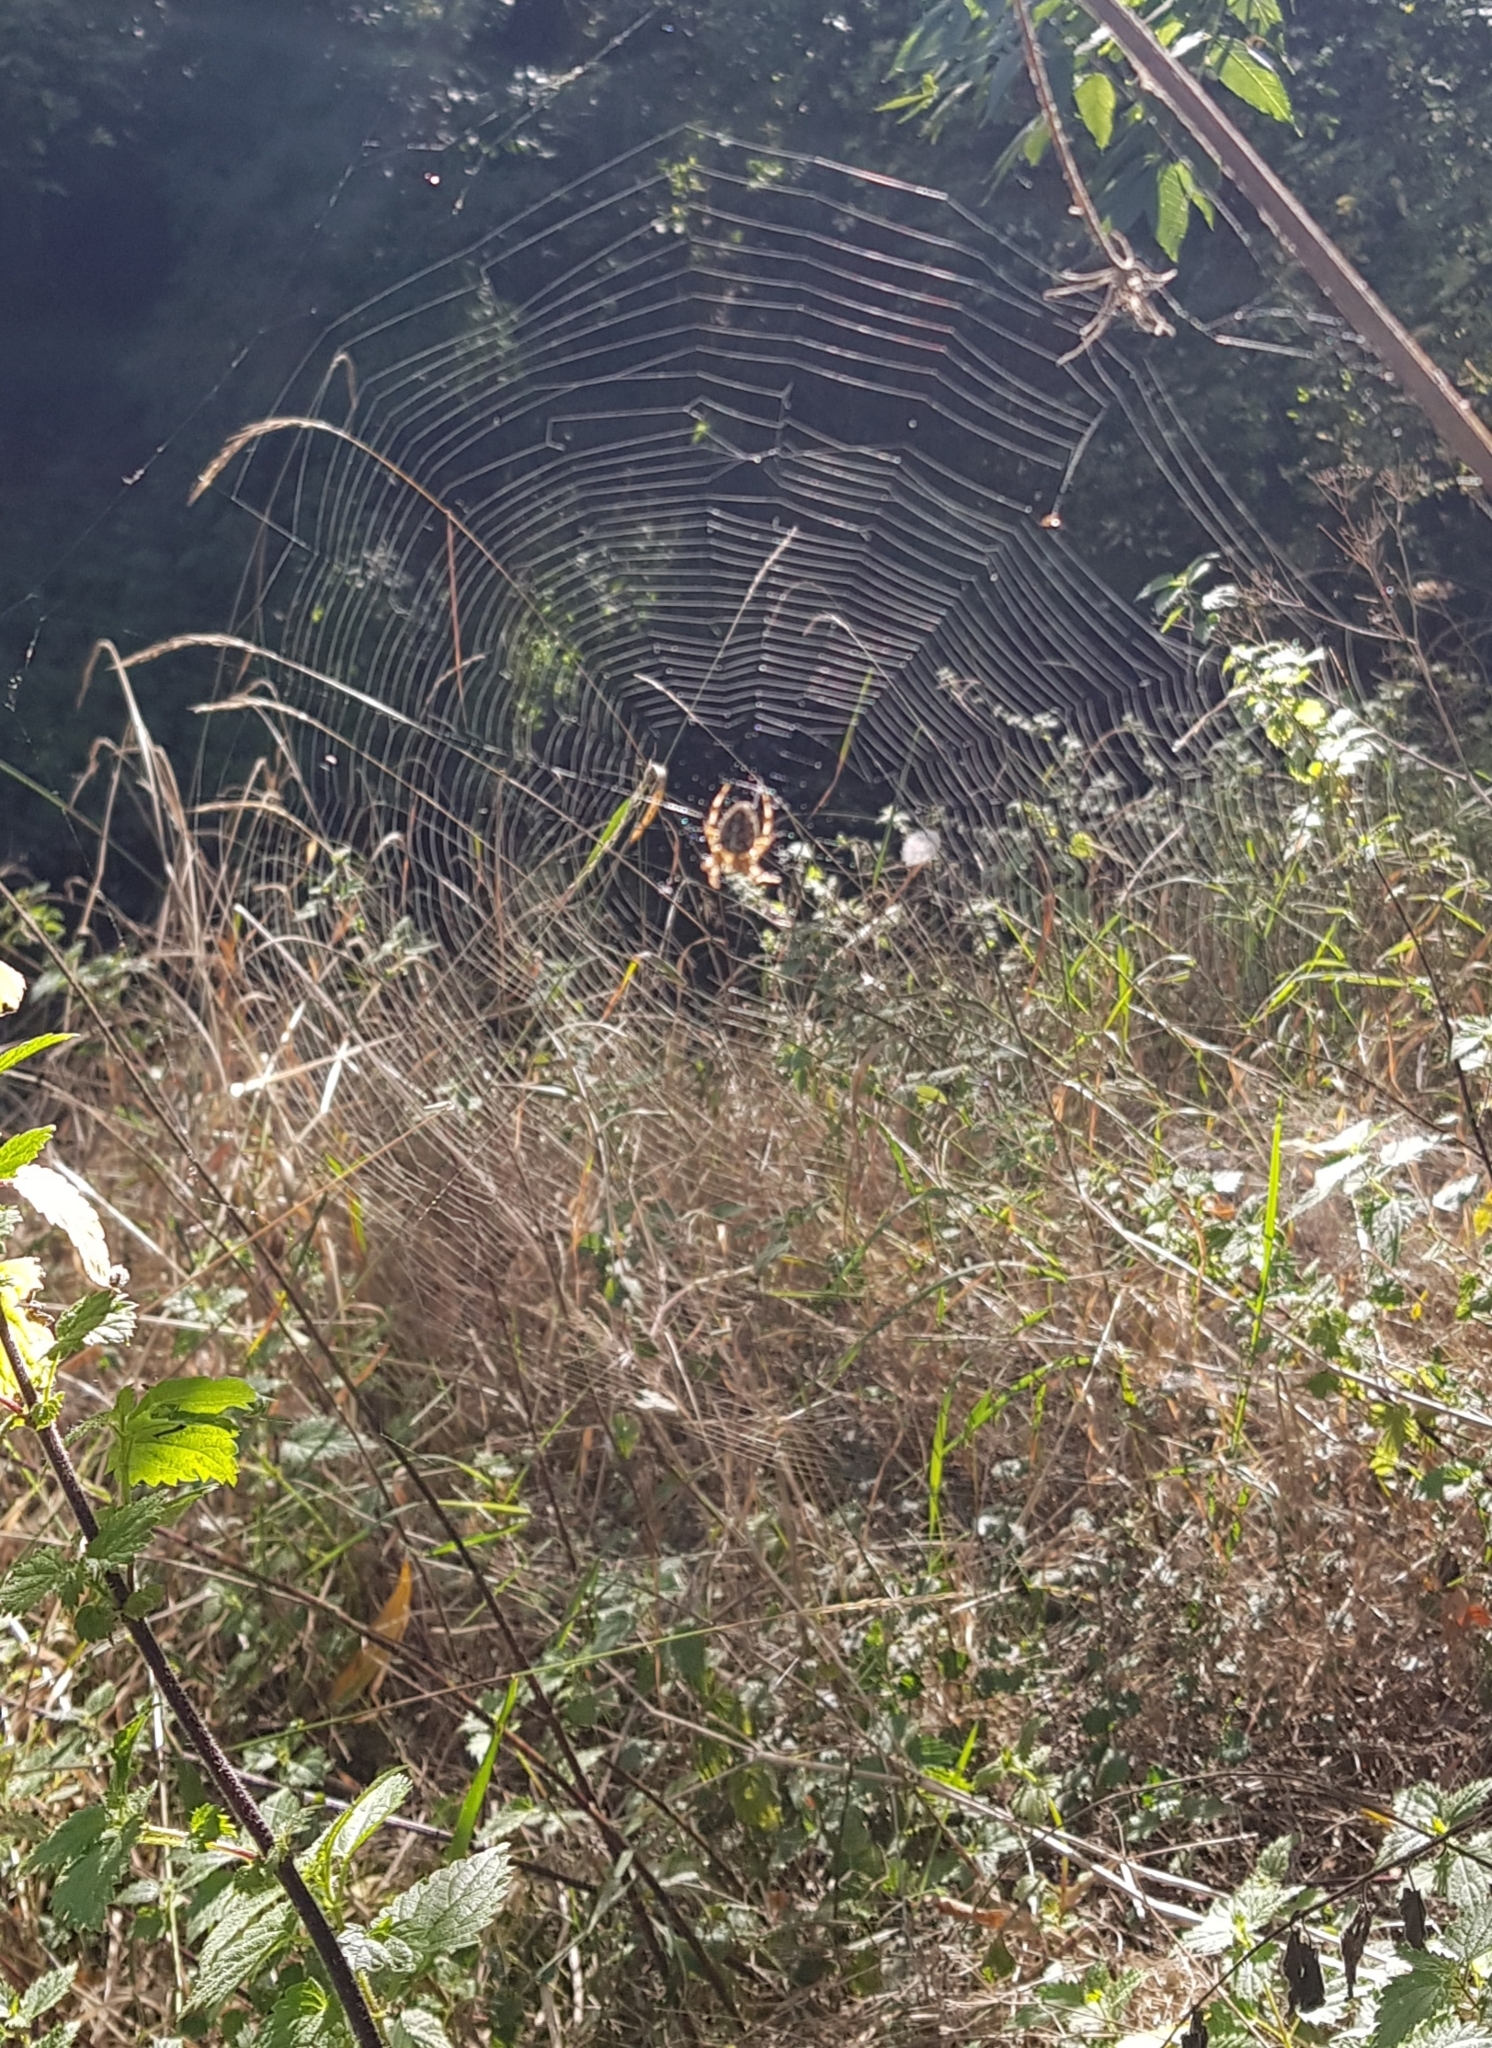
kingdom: Animalia
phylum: Arthropoda
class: Arachnida
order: Araneae
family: Araneidae
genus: Araneus
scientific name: Araneus diadematus
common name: Cross orbweaver
